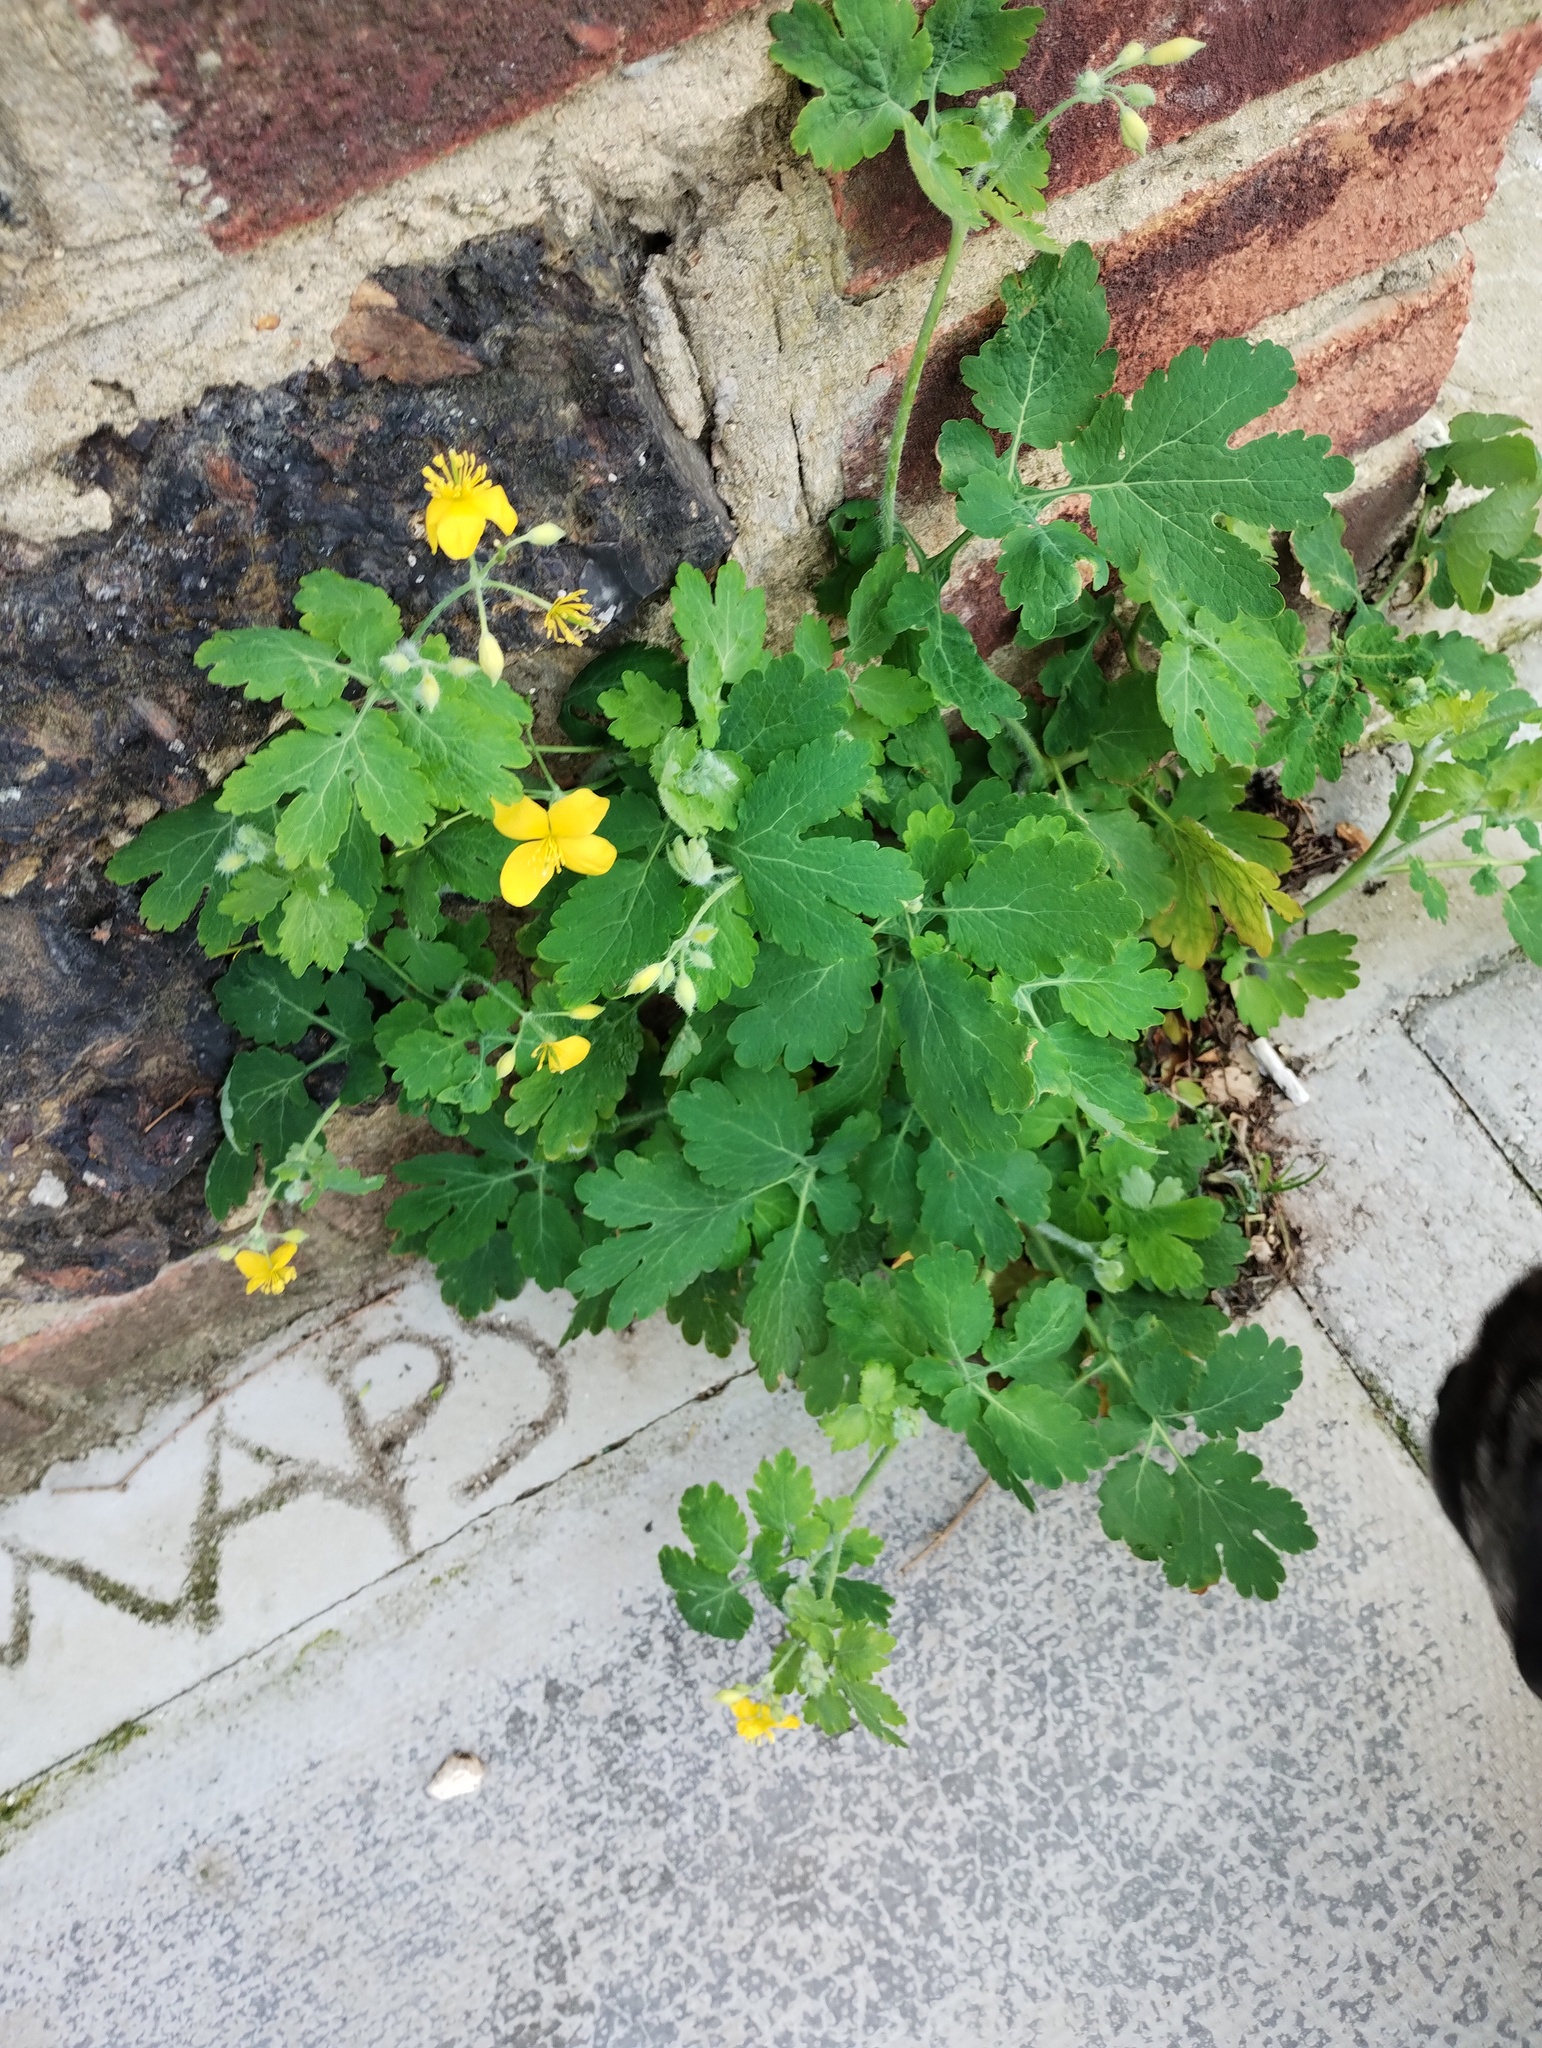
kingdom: Plantae
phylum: Tracheophyta
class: Magnoliopsida
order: Ranunculales
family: Papaveraceae
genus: Chelidonium
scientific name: Chelidonium majus
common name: Greater celandine
